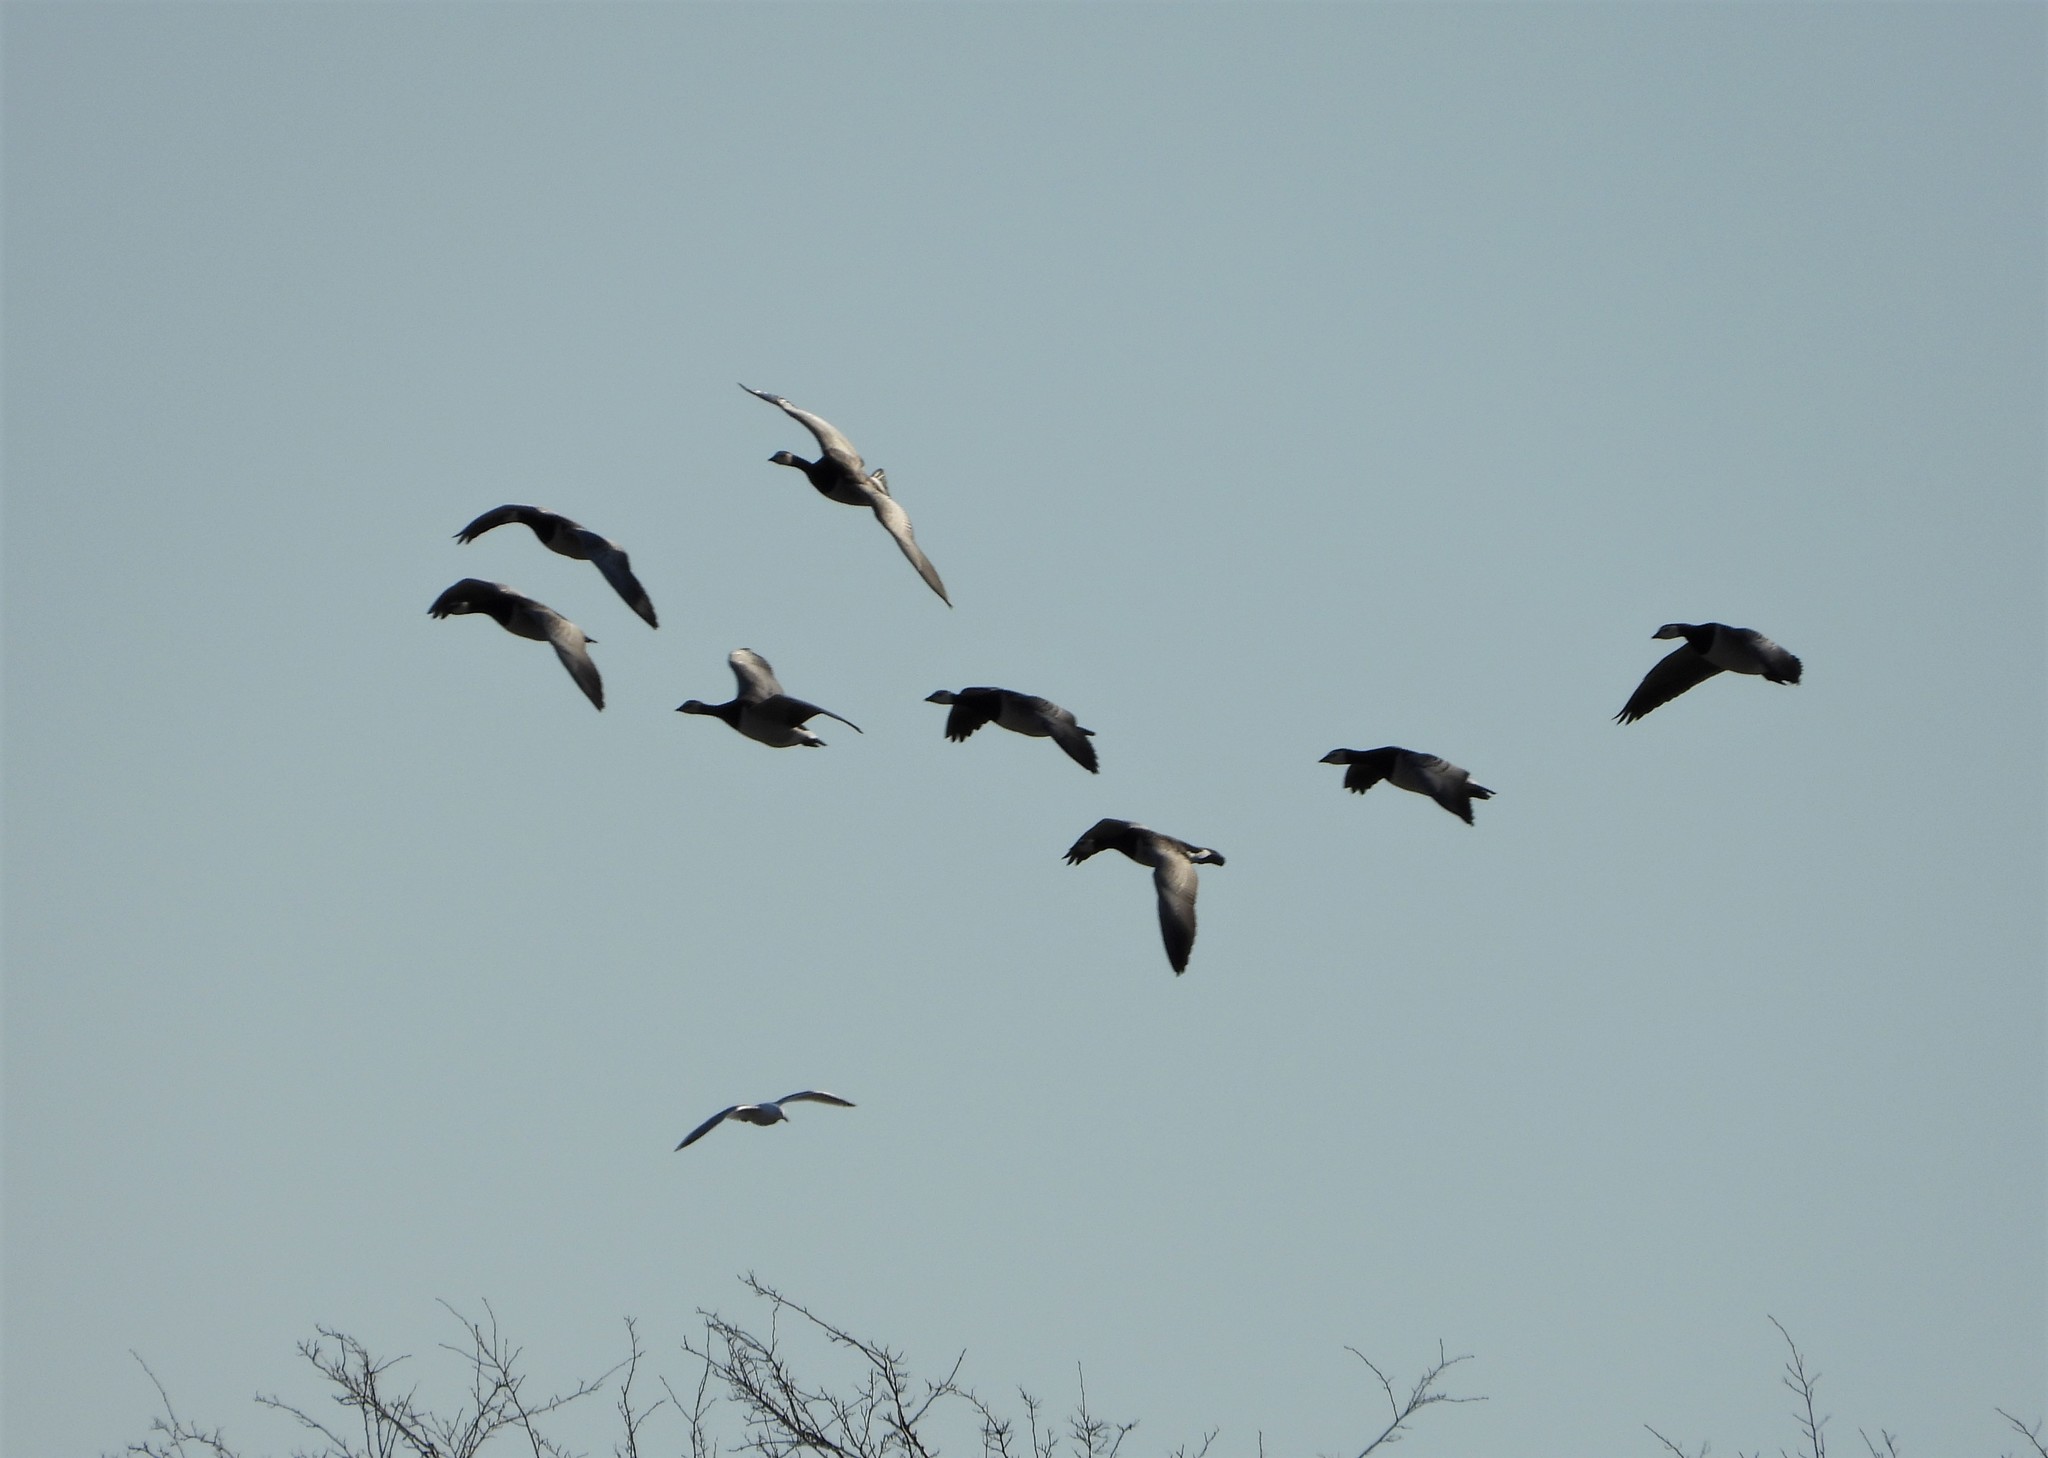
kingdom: Animalia
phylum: Chordata
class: Aves
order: Anseriformes
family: Anatidae
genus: Branta
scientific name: Branta leucopsis
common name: Barnacle goose
